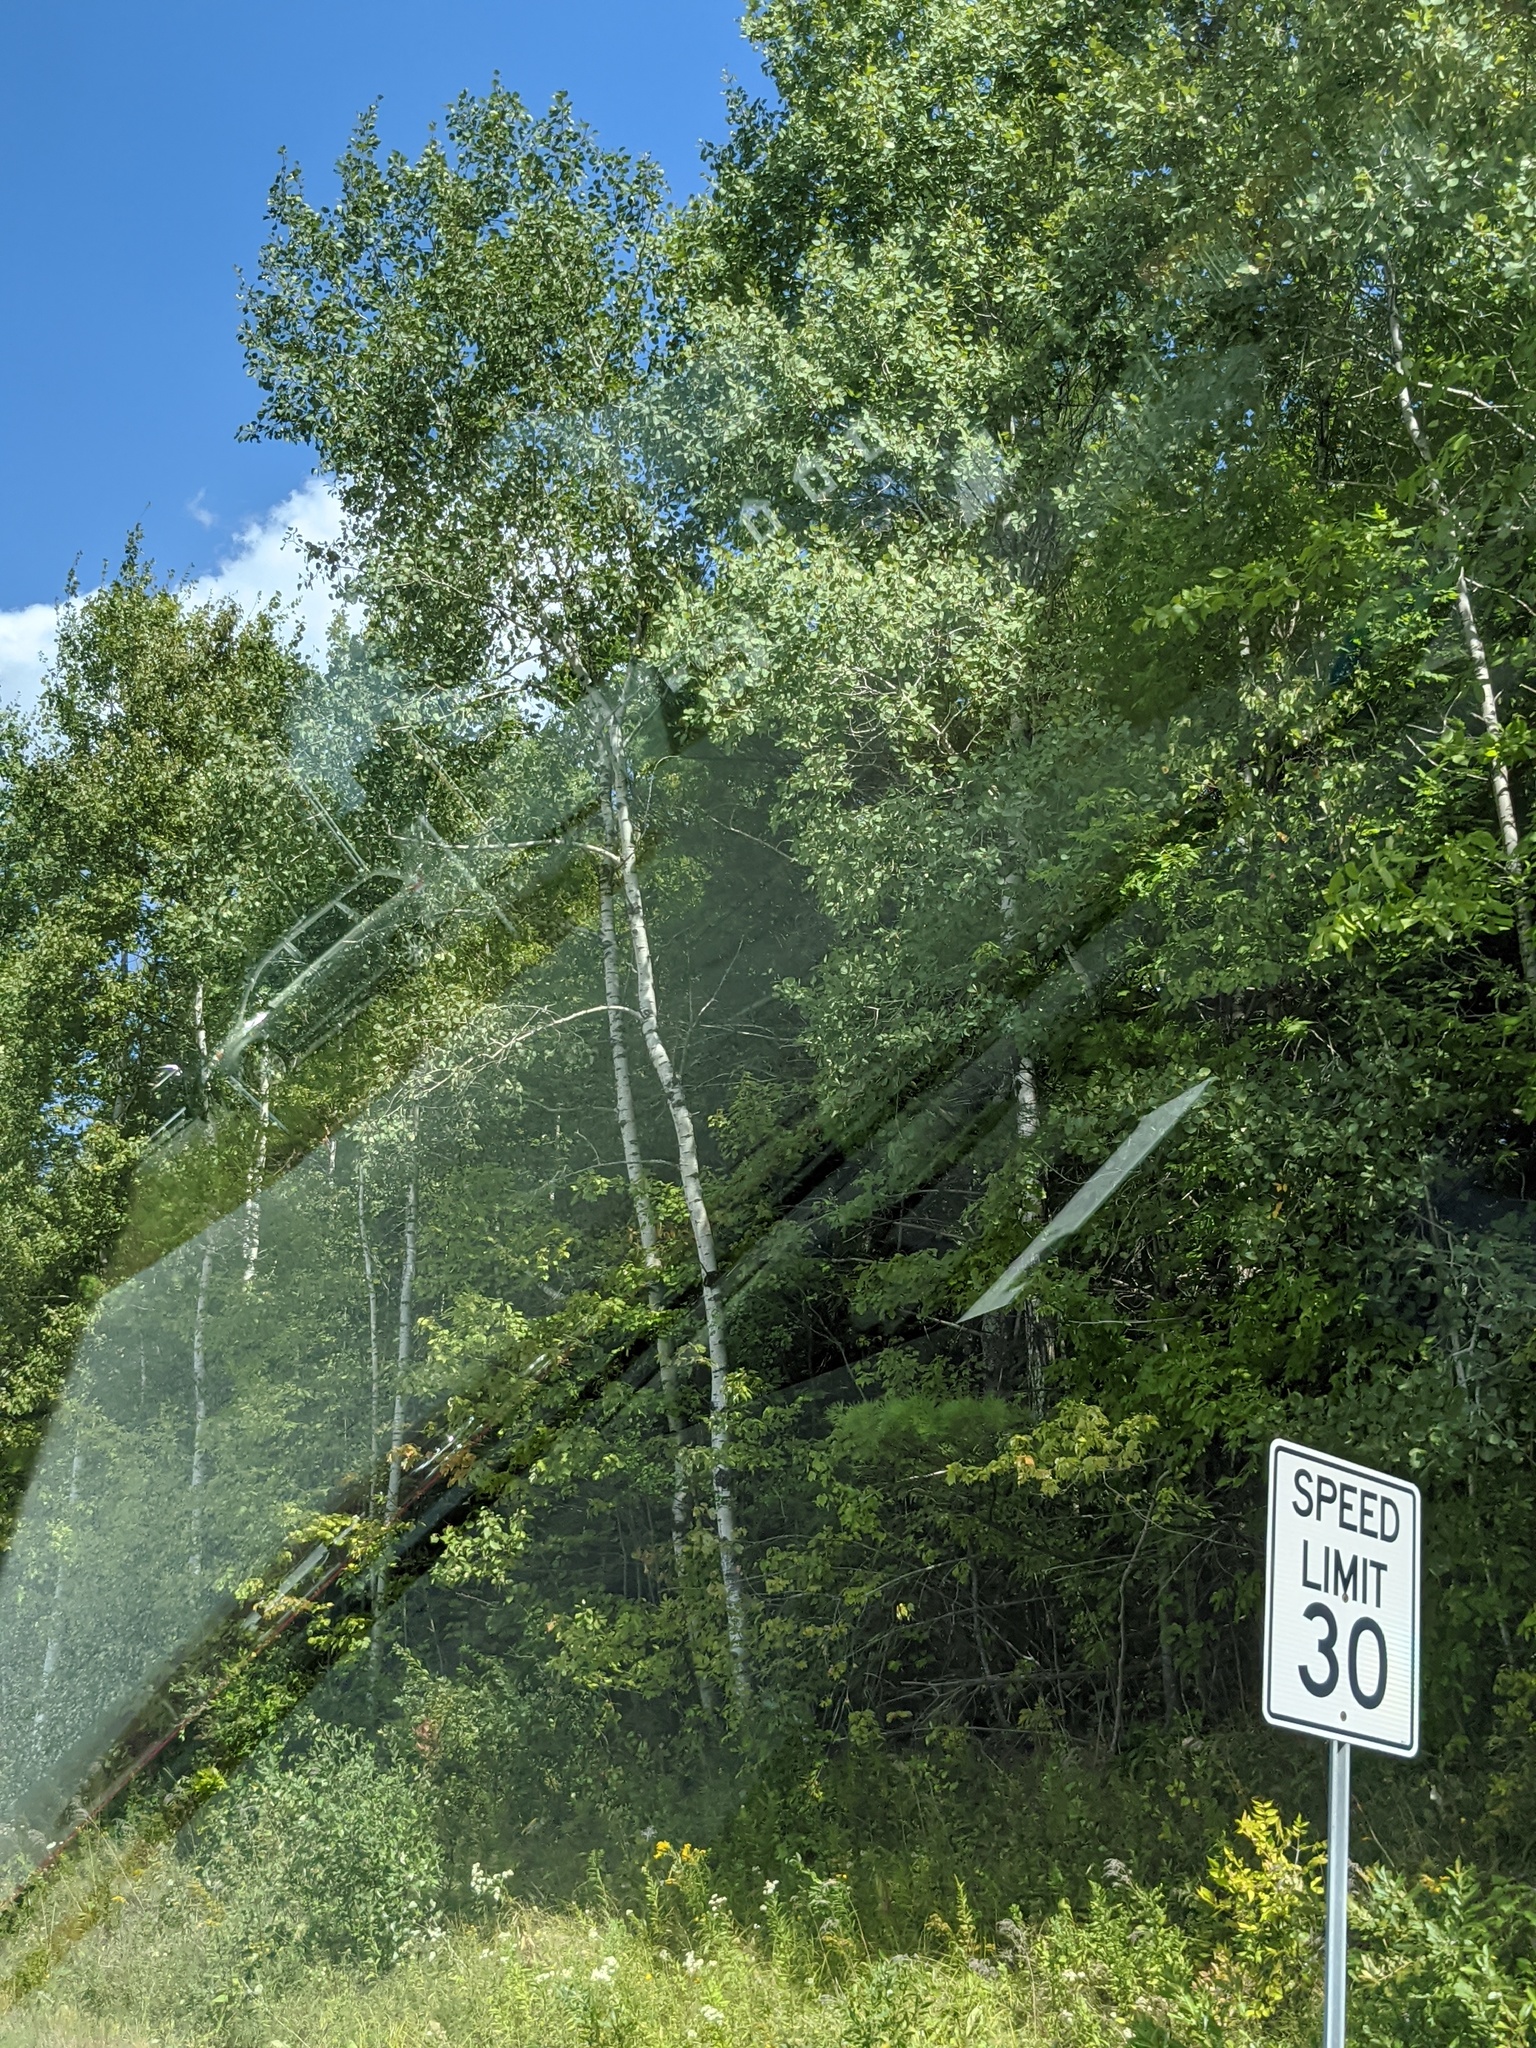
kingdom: Plantae
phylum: Tracheophyta
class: Magnoliopsida
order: Fagales
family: Betulaceae
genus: Betula
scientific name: Betula papyrifera
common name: Paper birch
